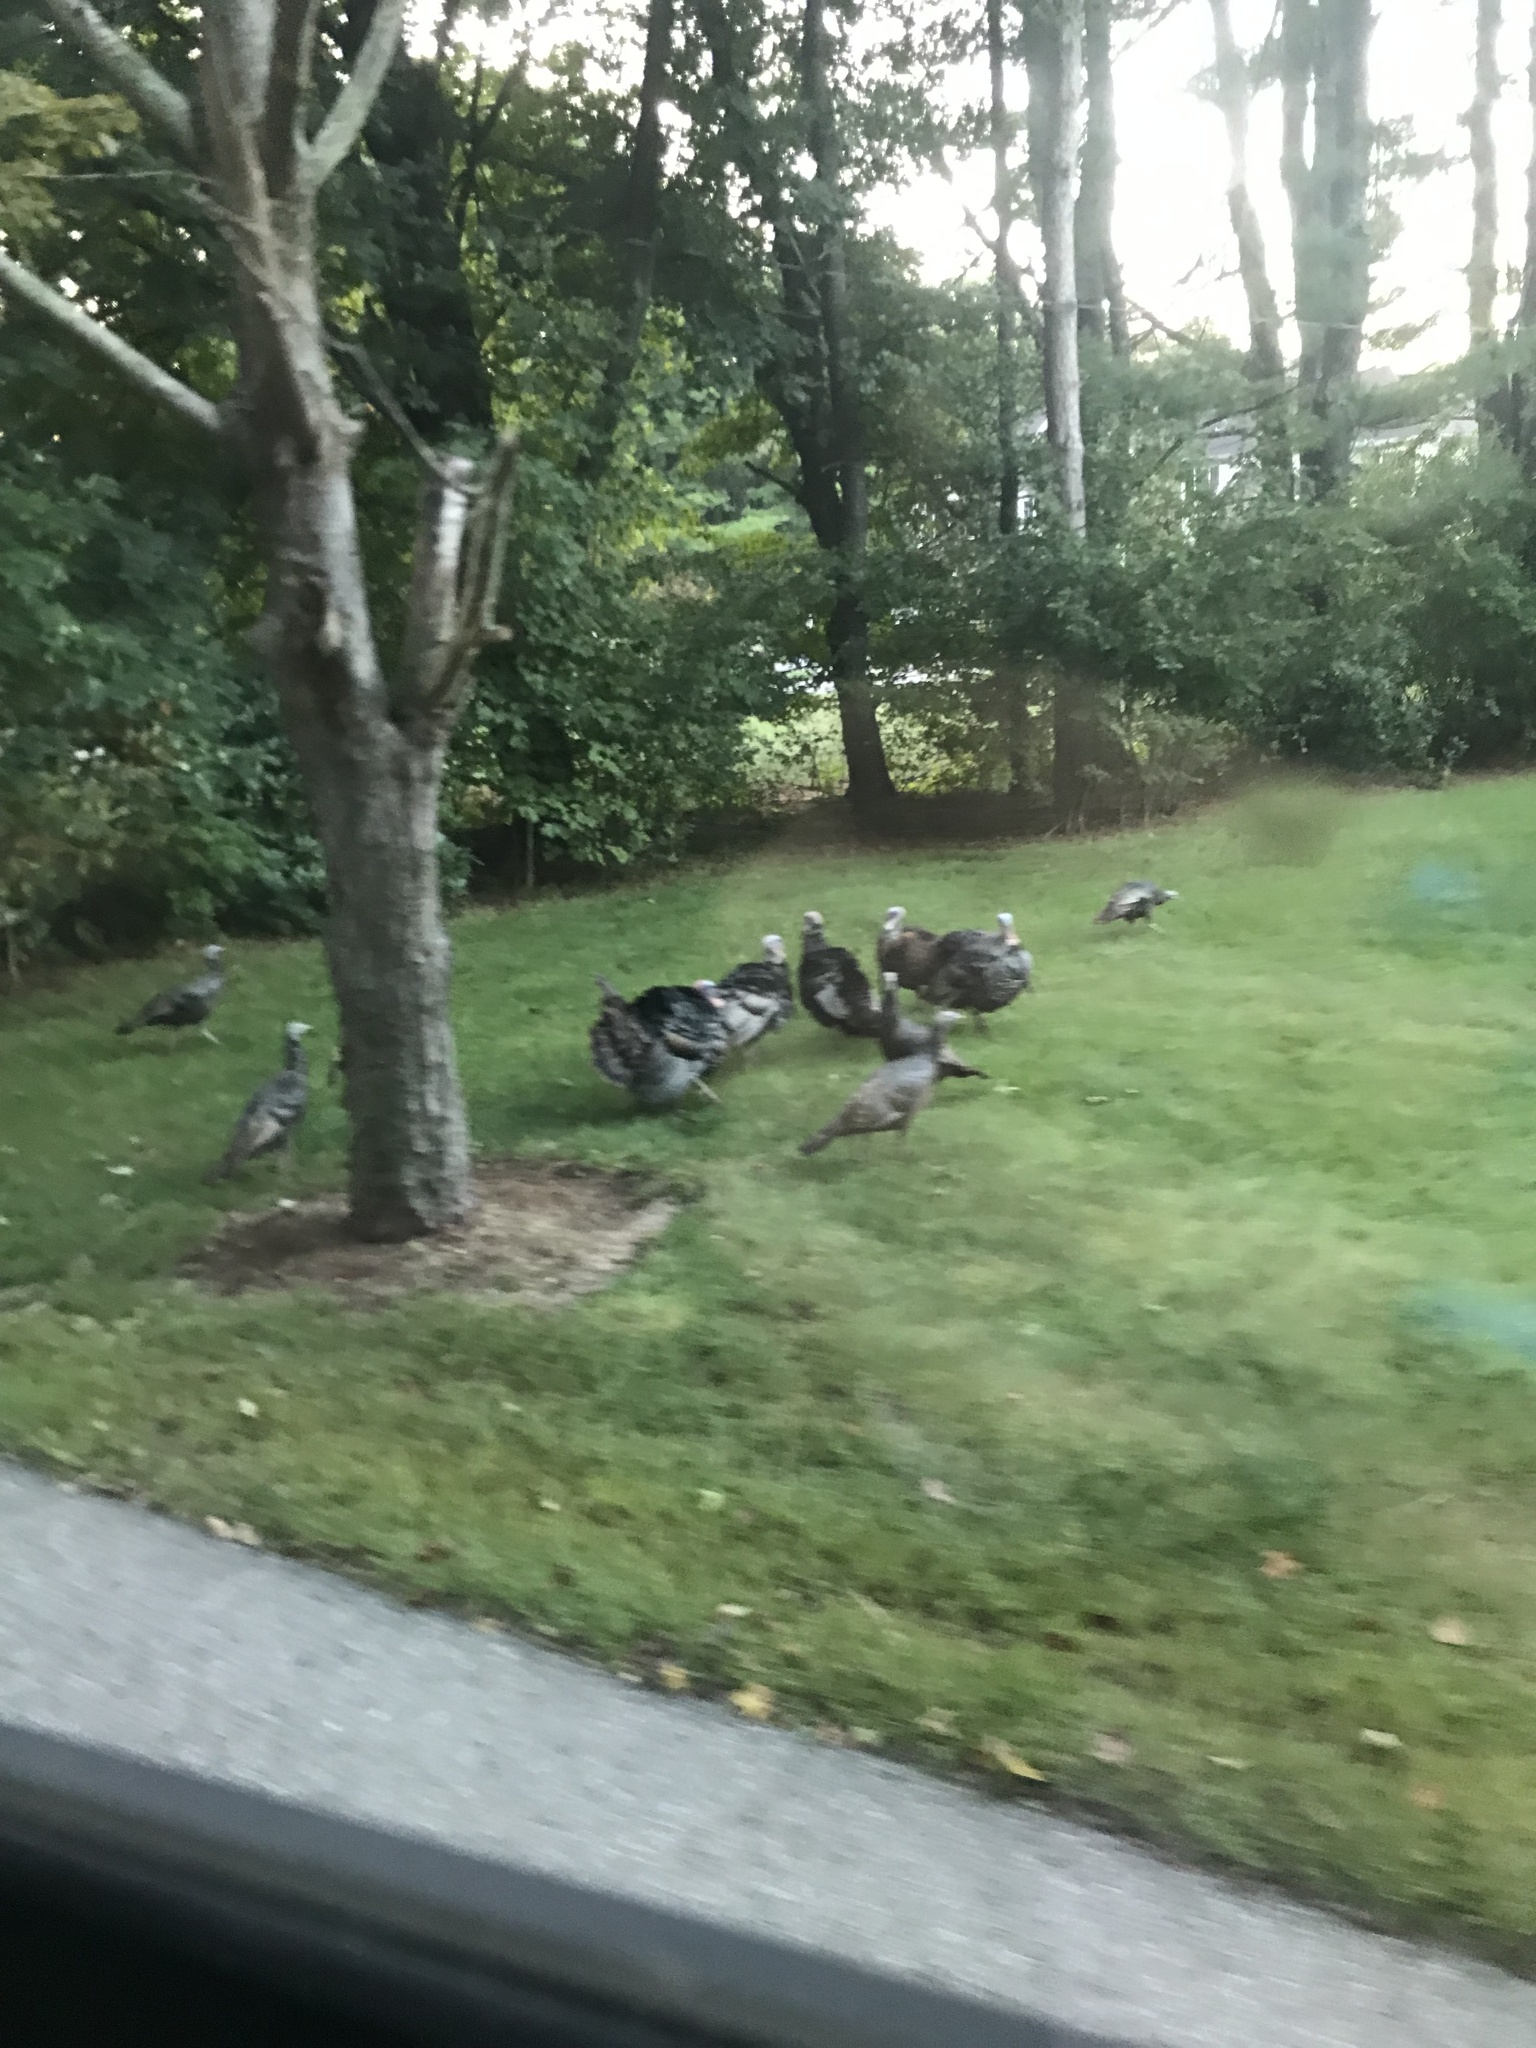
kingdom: Animalia
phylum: Chordata
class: Aves
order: Galliformes
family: Phasianidae
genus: Meleagris
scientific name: Meleagris gallopavo
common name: Wild turkey
